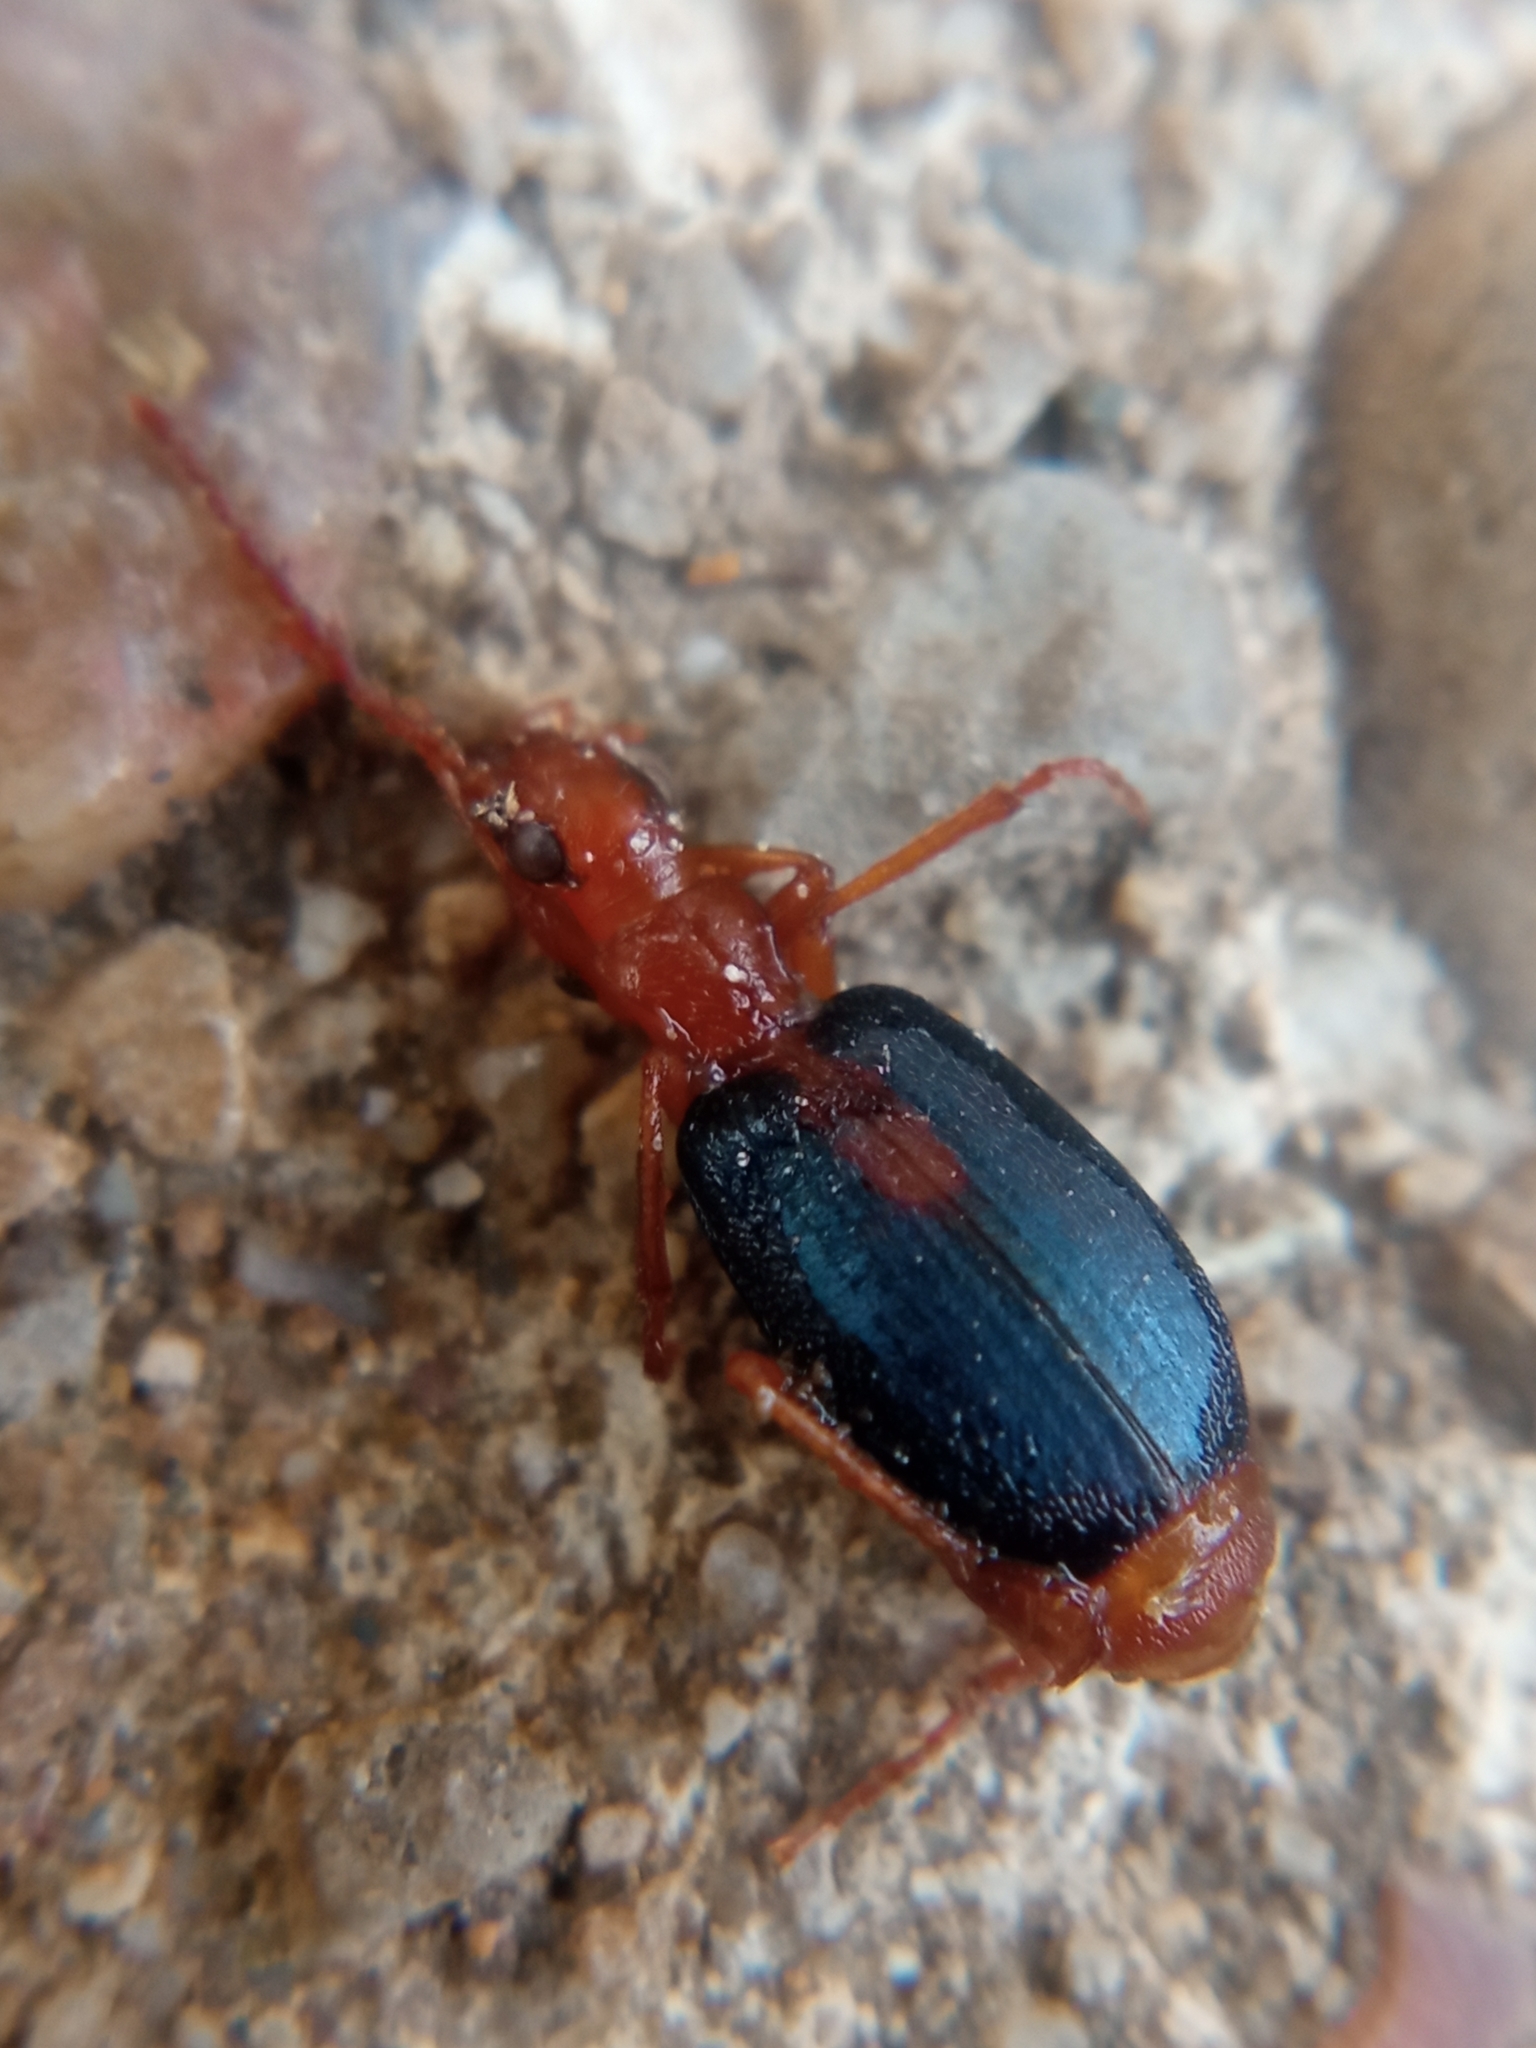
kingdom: Animalia
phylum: Arthropoda
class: Insecta
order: Coleoptera
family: Carabidae
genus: Brachinus
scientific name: Brachinus sclopeta
